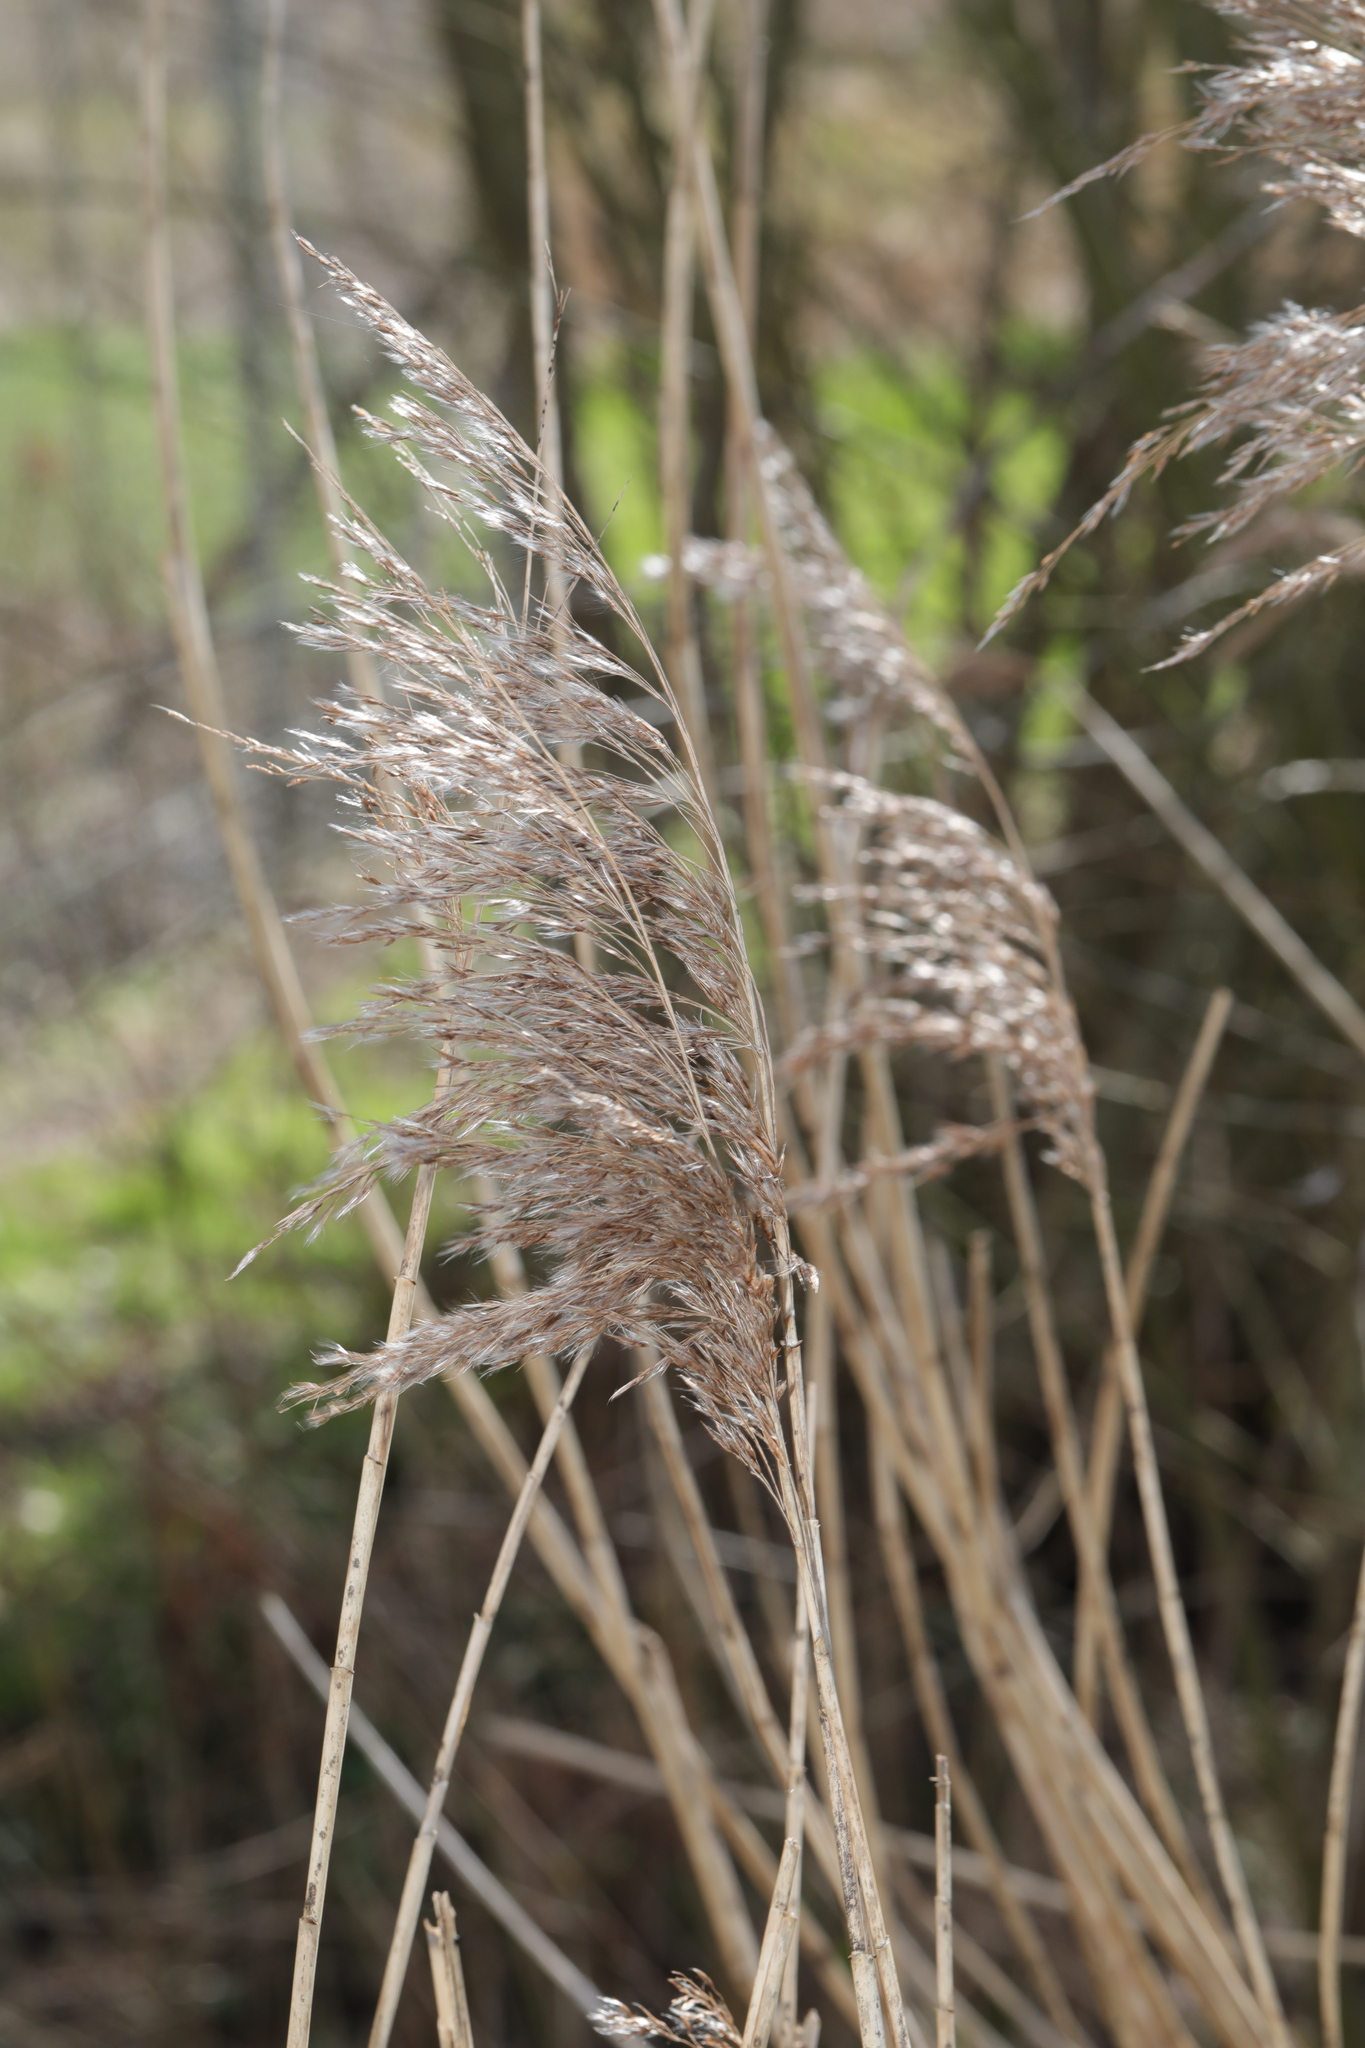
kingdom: Plantae
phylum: Tracheophyta
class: Liliopsida
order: Poales
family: Poaceae
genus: Phragmites
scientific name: Phragmites australis
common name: Common reed
